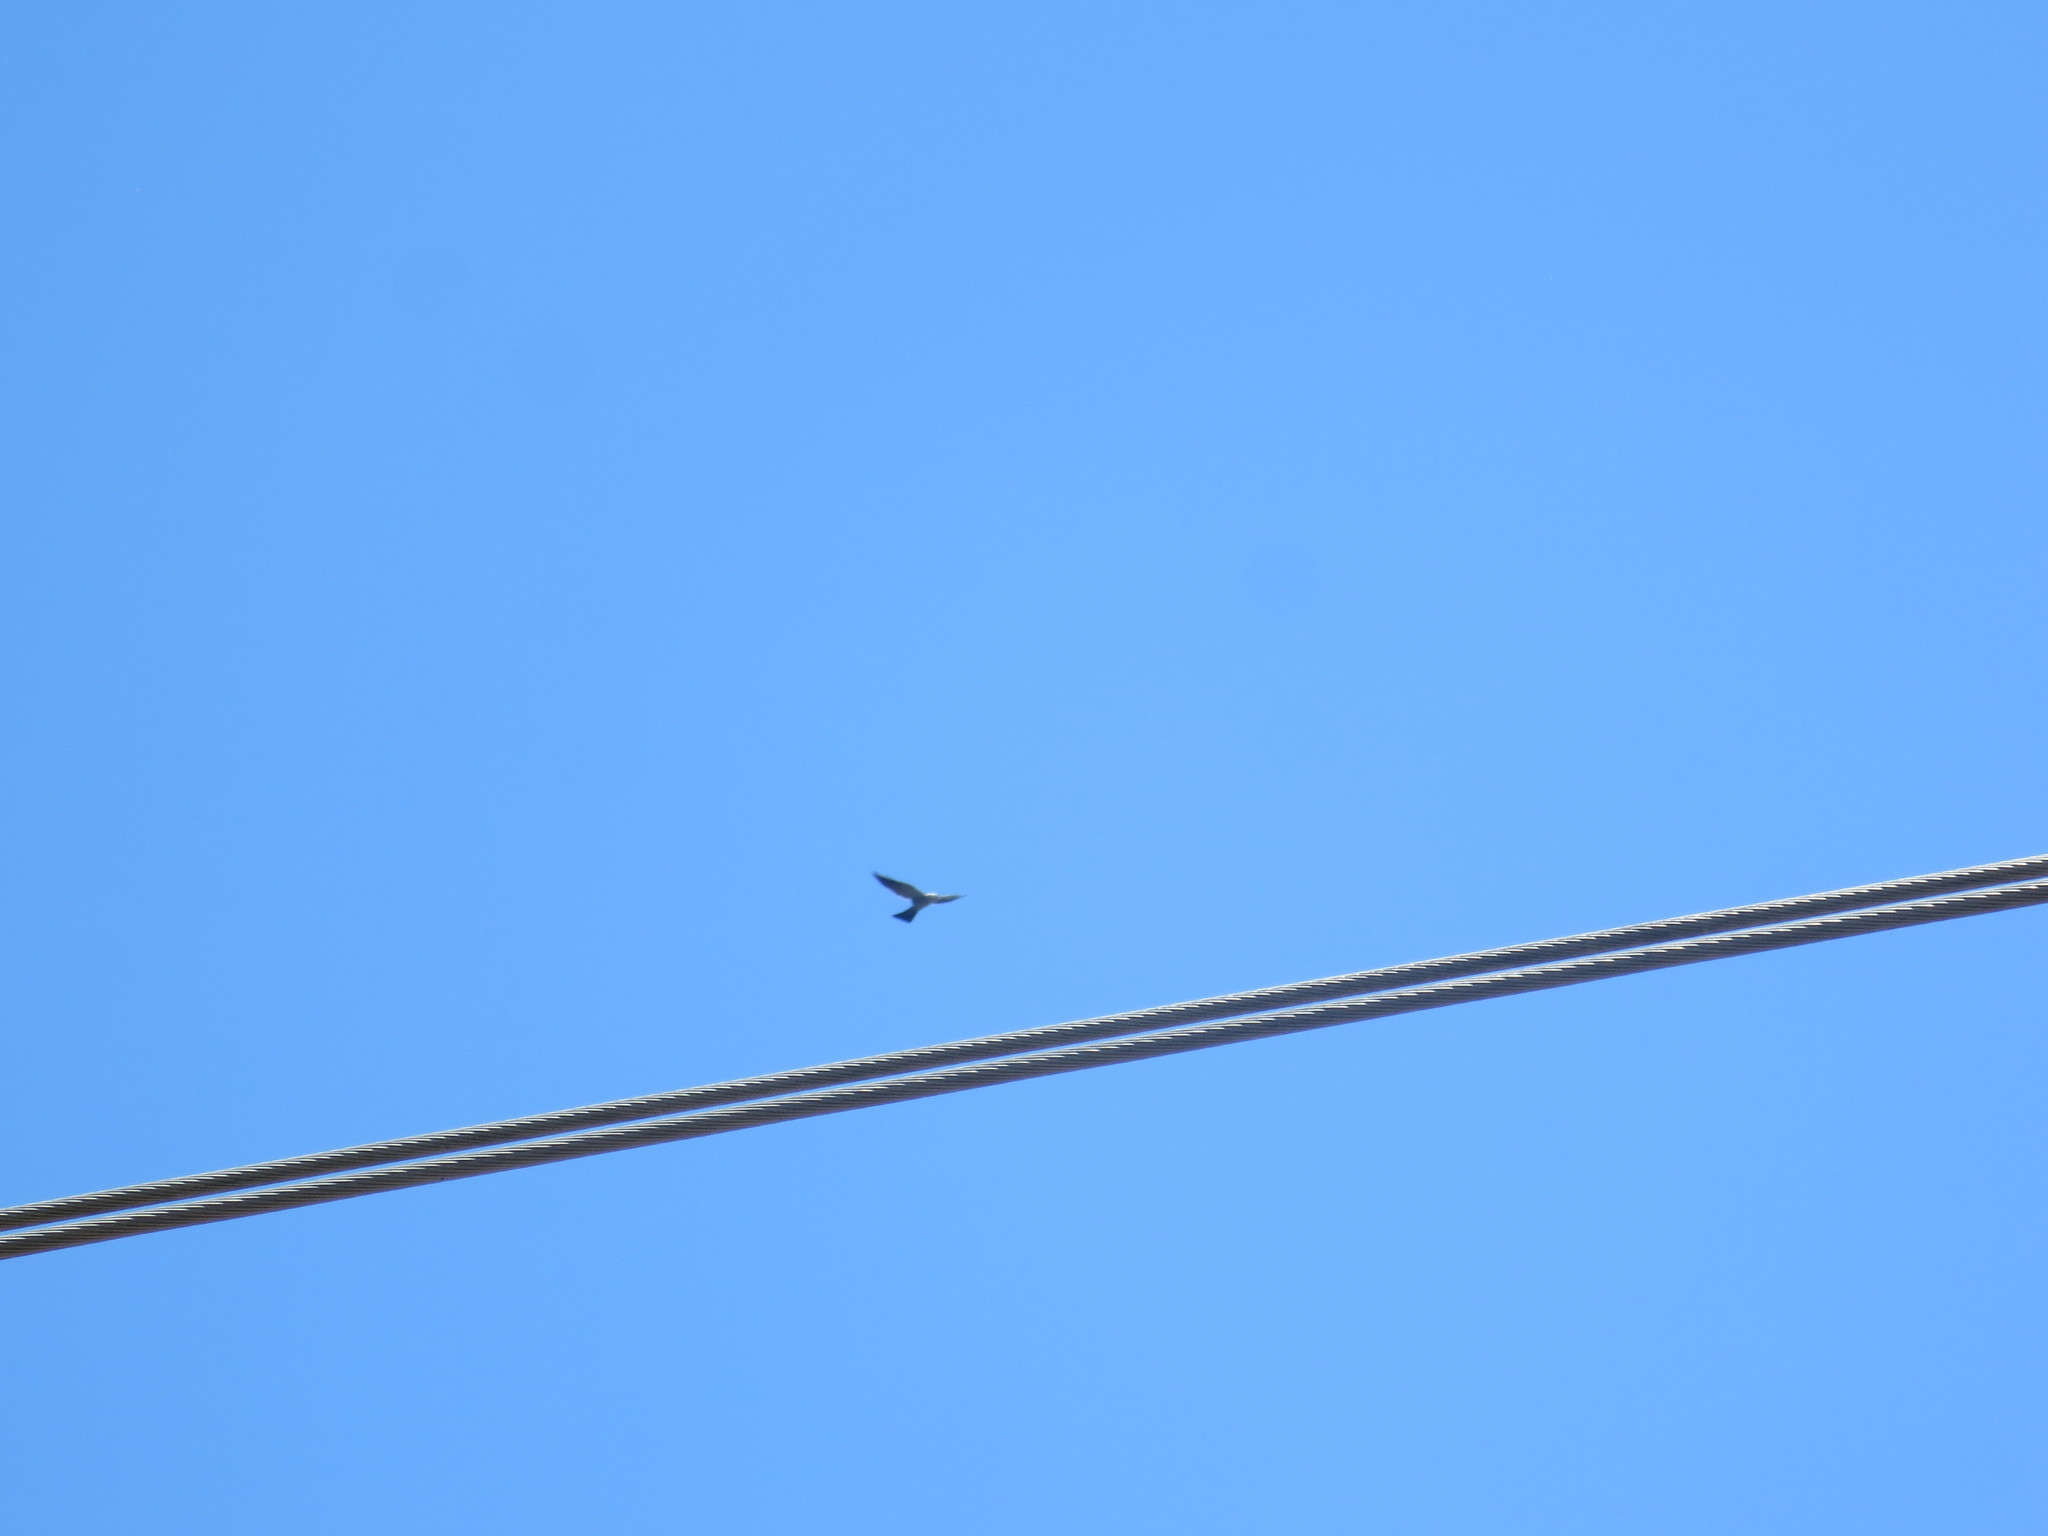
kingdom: Animalia
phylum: Chordata
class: Aves
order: Accipitriformes
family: Accipitridae
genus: Ictinia
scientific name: Ictinia mississippiensis
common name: Mississippi kite
